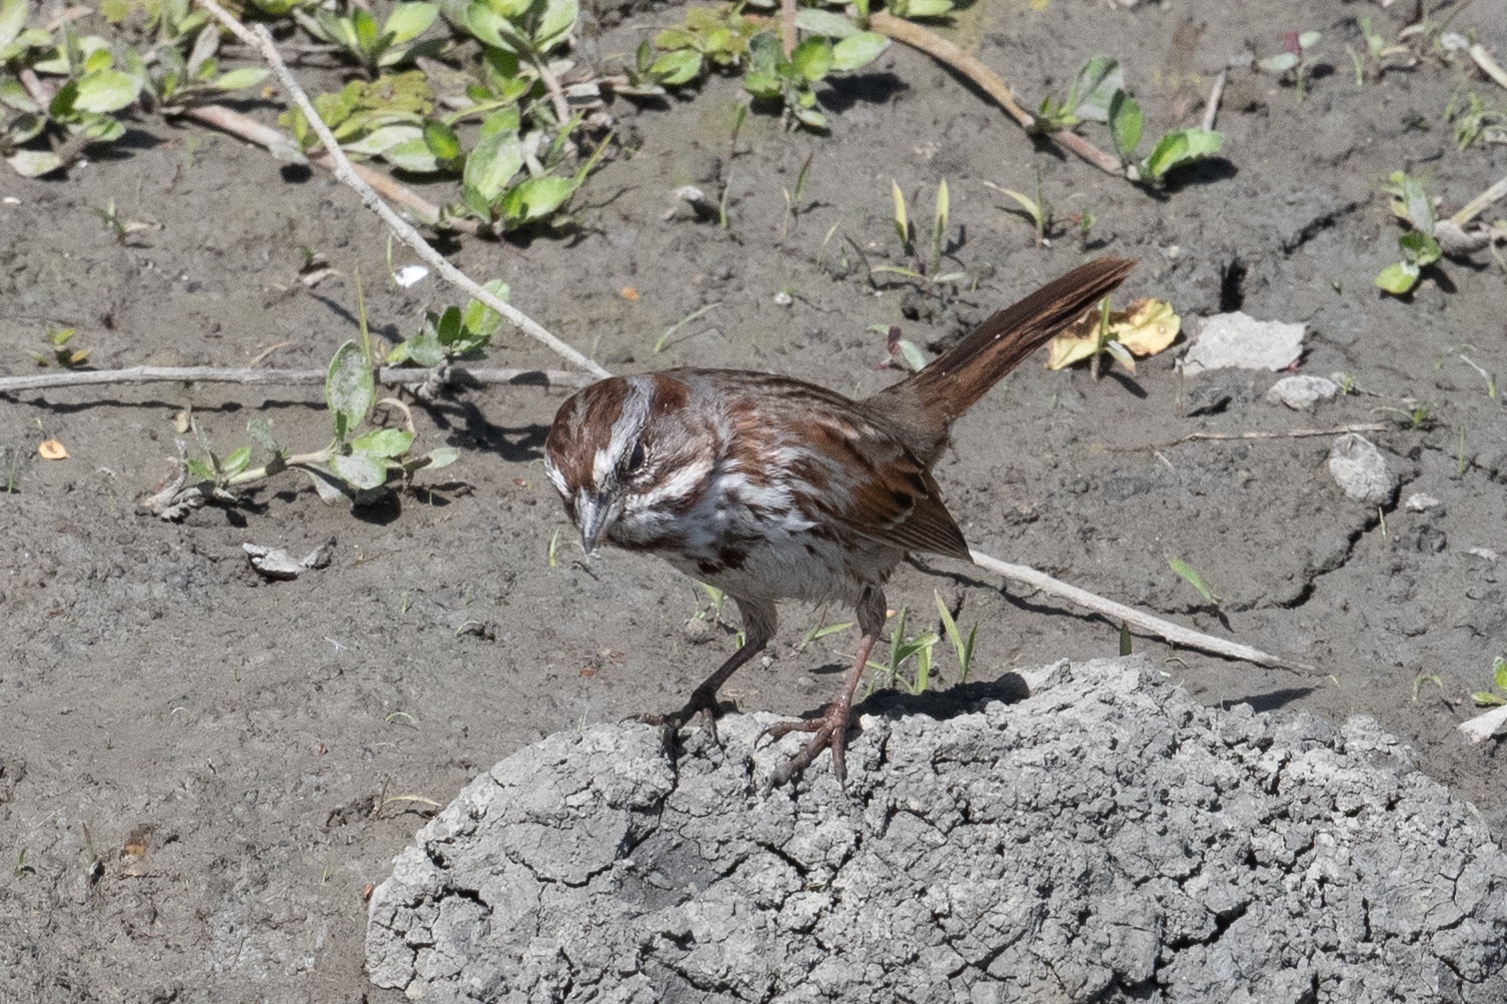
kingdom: Animalia
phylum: Chordata
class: Aves
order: Passeriformes
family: Passerellidae
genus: Melospiza
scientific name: Melospiza melodia
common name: Song sparrow
